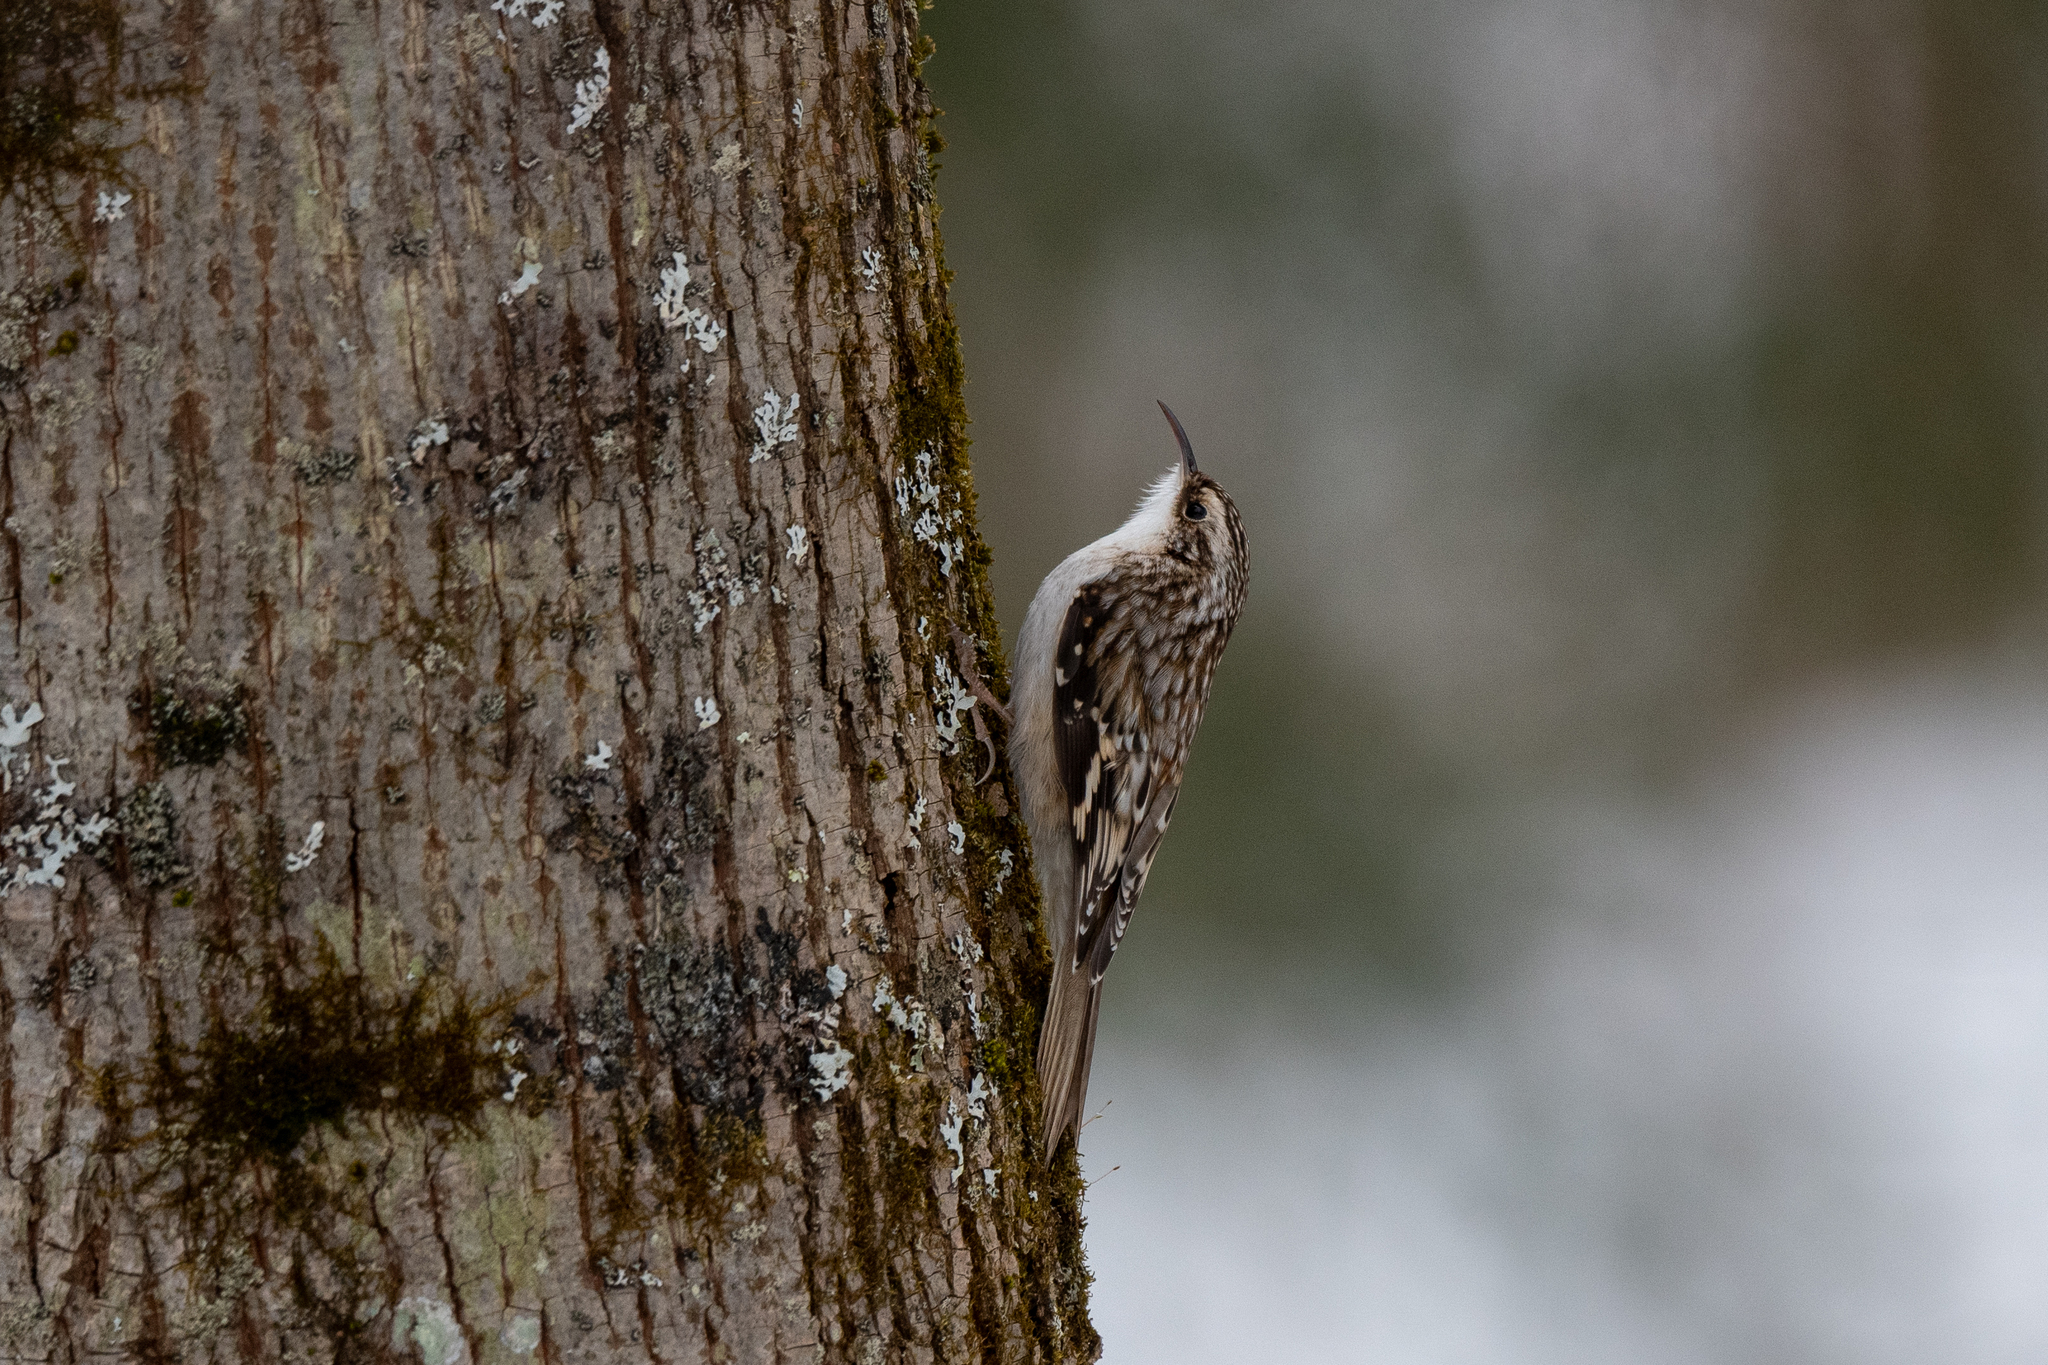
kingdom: Animalia
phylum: Chordata
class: Aves
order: Passeriformes
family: Certhiidae
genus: Certhia
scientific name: Certhia americana
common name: Brown creeper
